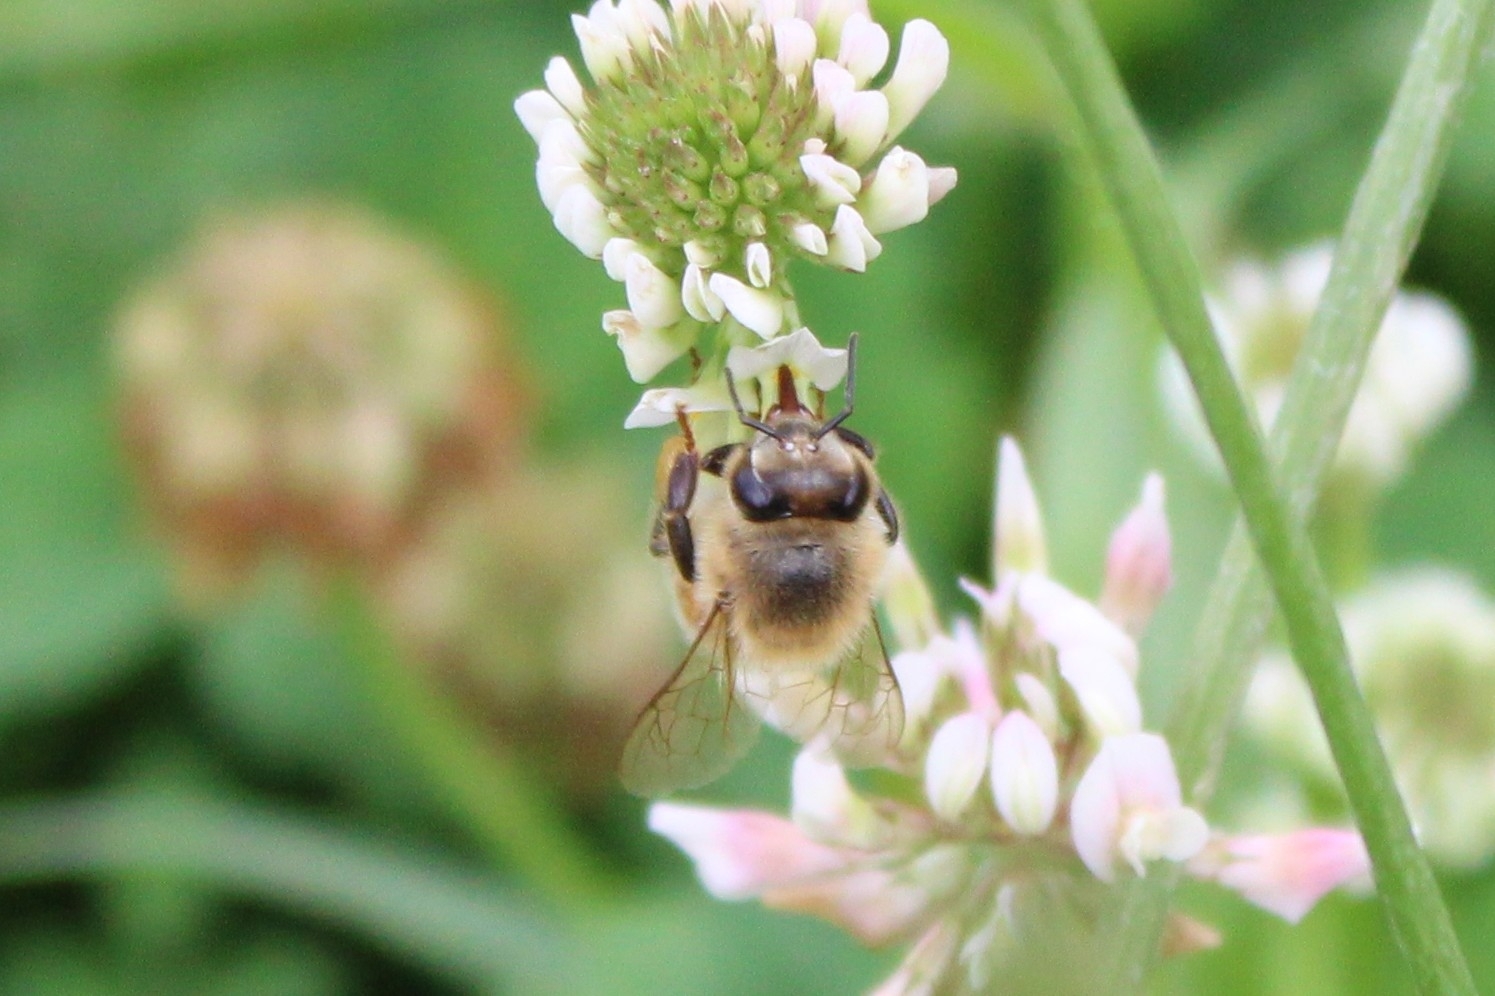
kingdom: Animalia
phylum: Arthropoda
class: Insecta
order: Hymenoptera
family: Apidae
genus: Apis
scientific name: Apis mellifera
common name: Honey bee
